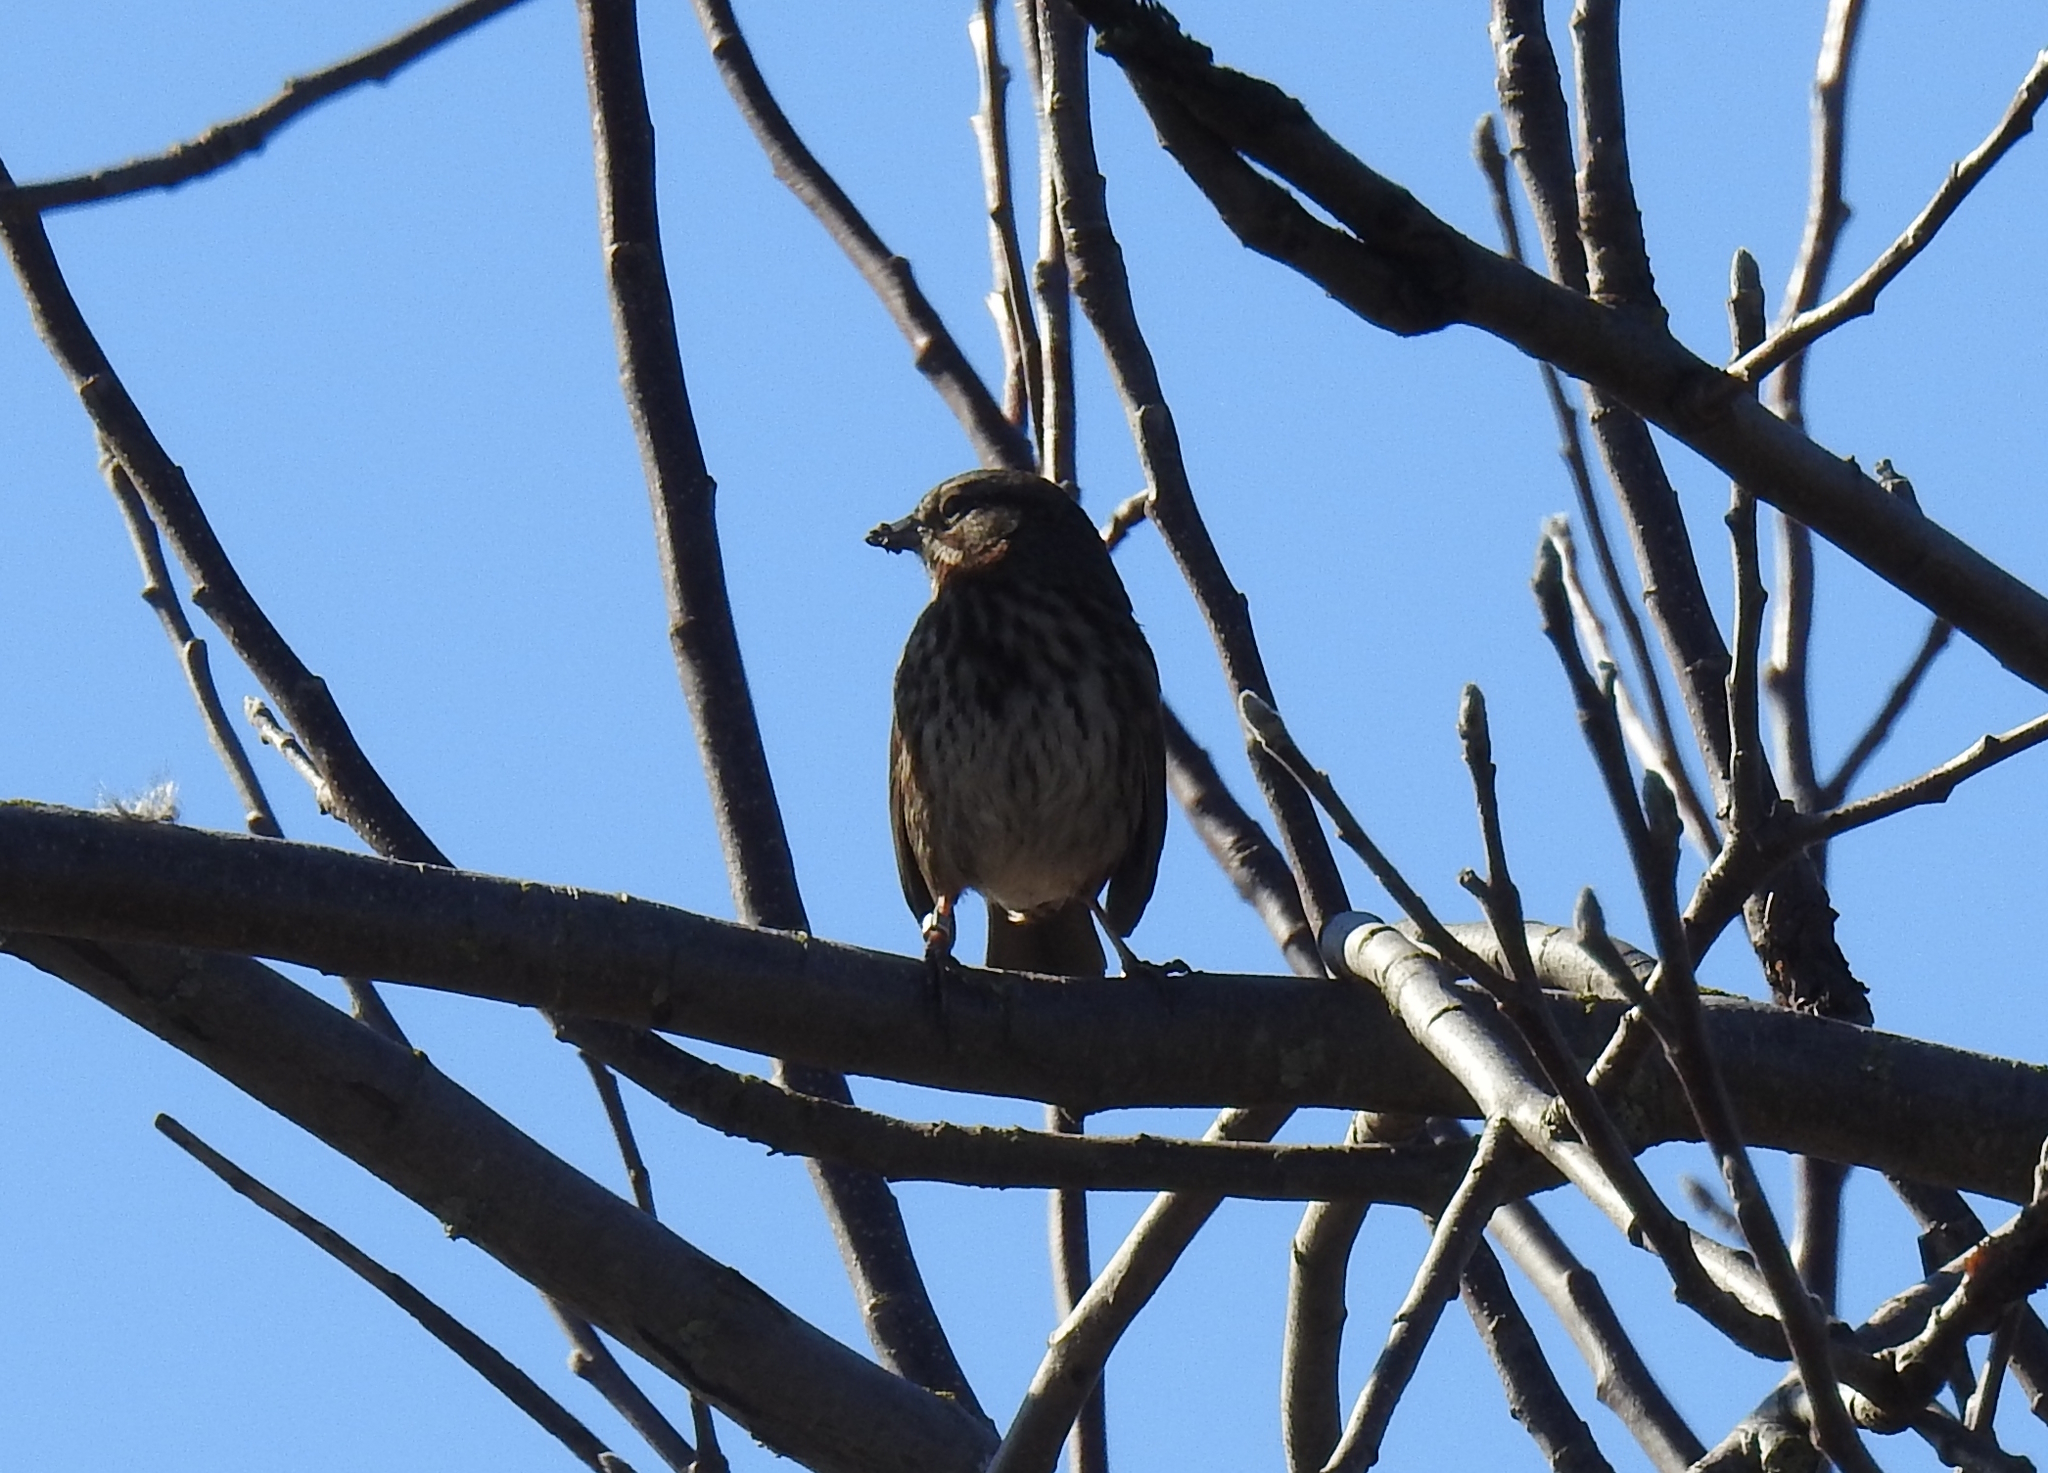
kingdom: Animalia
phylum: Chordata
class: Aves
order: Passeriformes
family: Passerellidae
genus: Melospiza
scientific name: Melospiza melodia
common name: Song sparrow
